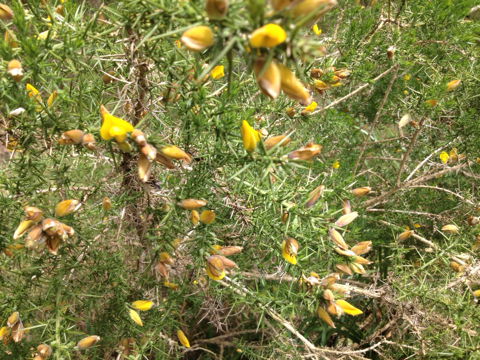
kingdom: Plantae
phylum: Tracheophyta
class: Magnoliopsida
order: Fabales
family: Fabaceae
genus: Ulex
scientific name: Ulex europaeus
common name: Common gorse
